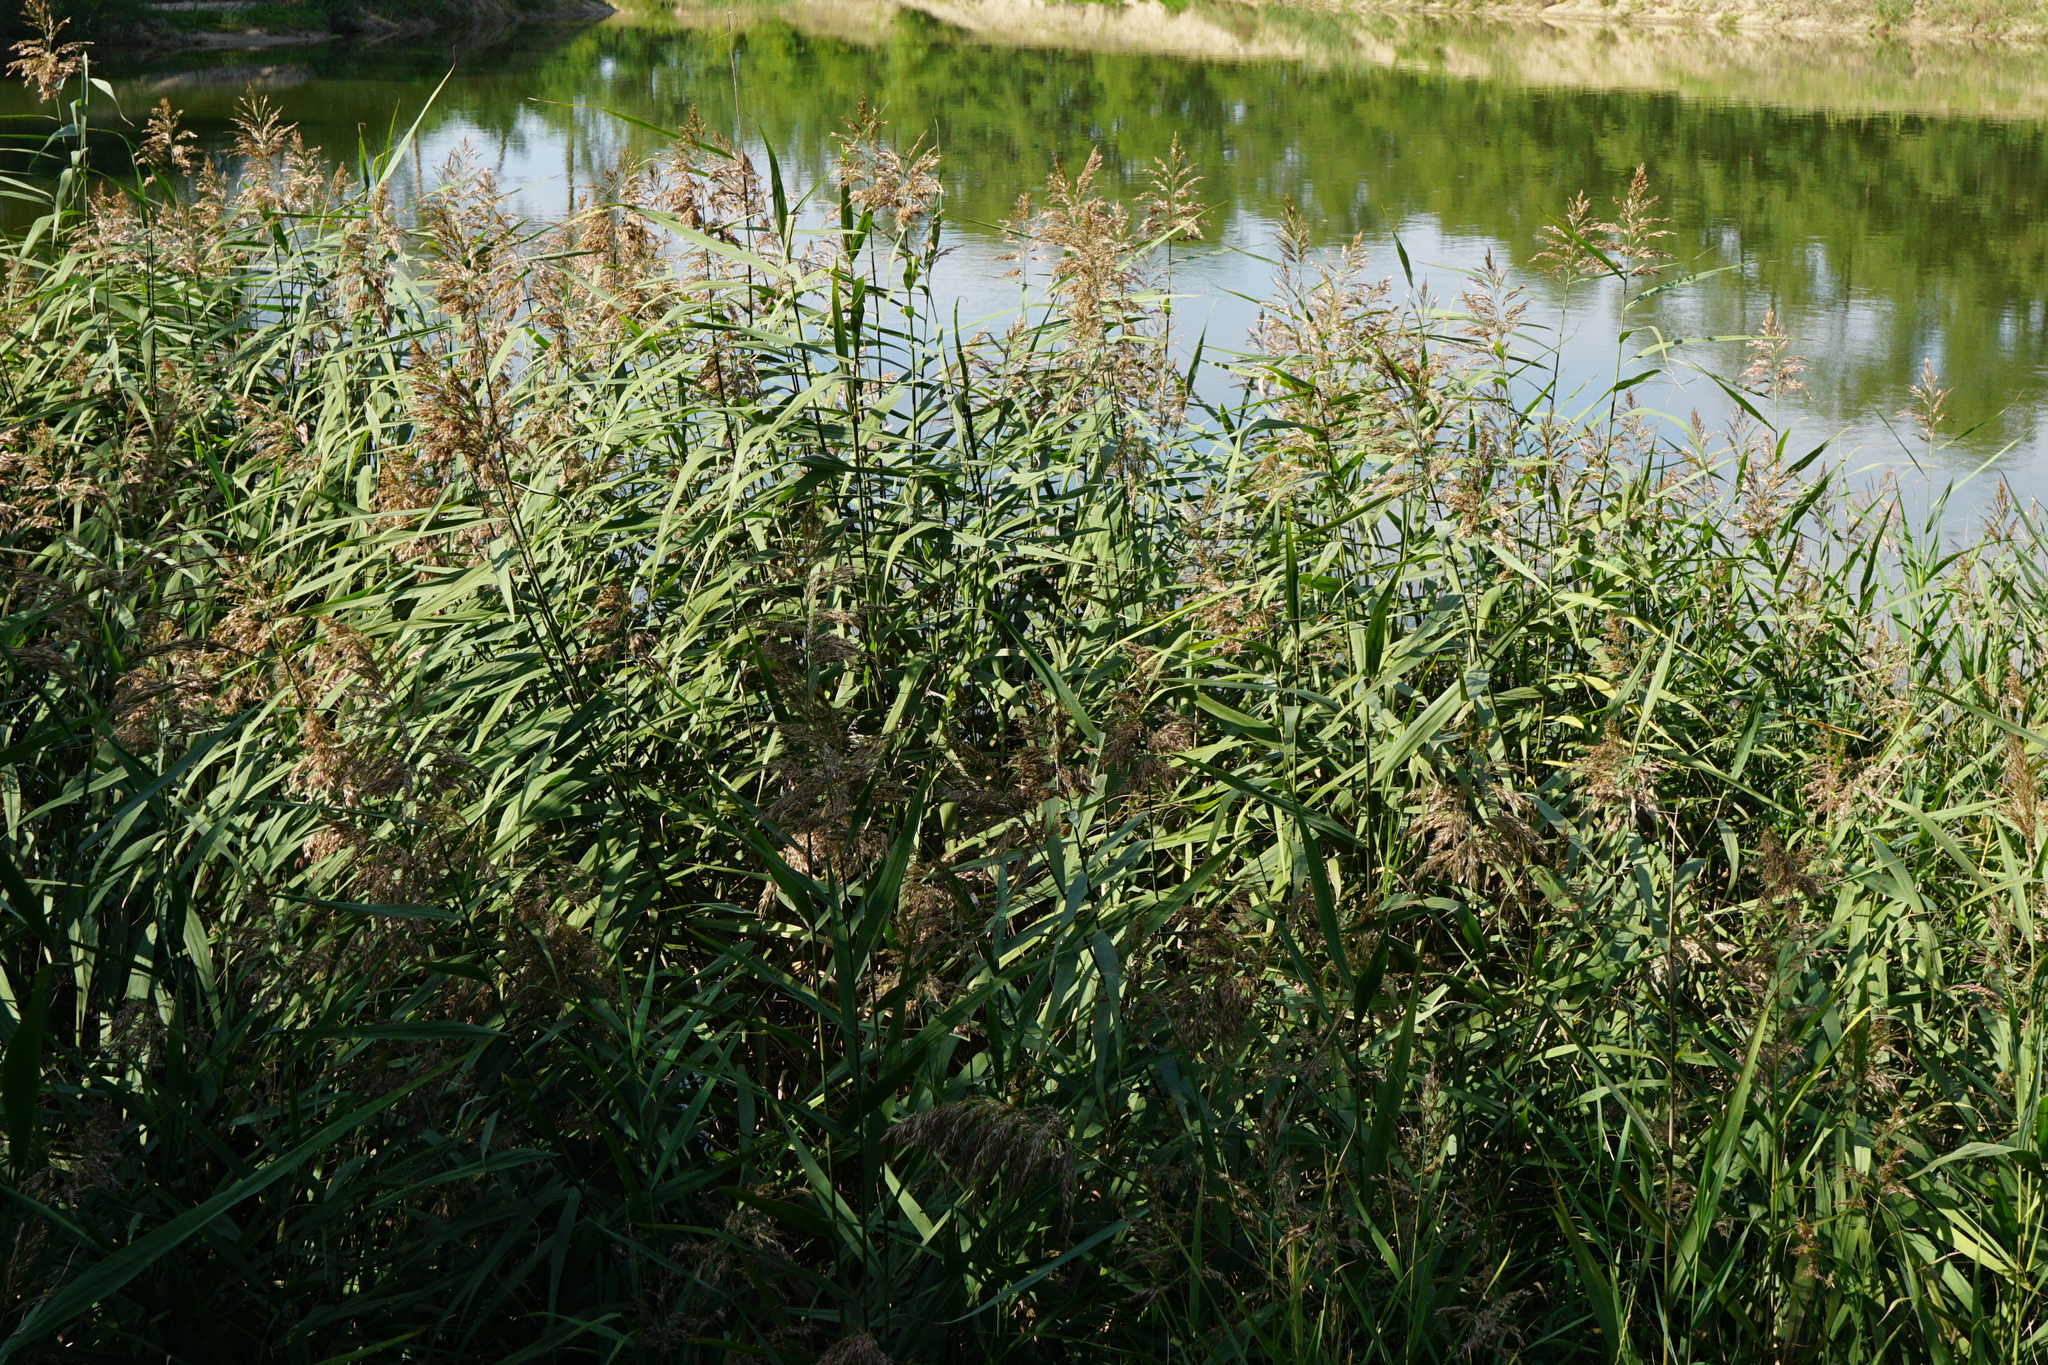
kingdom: Plantae
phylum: Tracheophyta
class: Liliopsida
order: Poales
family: Poaceae
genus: Phragmites
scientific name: Phragmites australis
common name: Common reed
